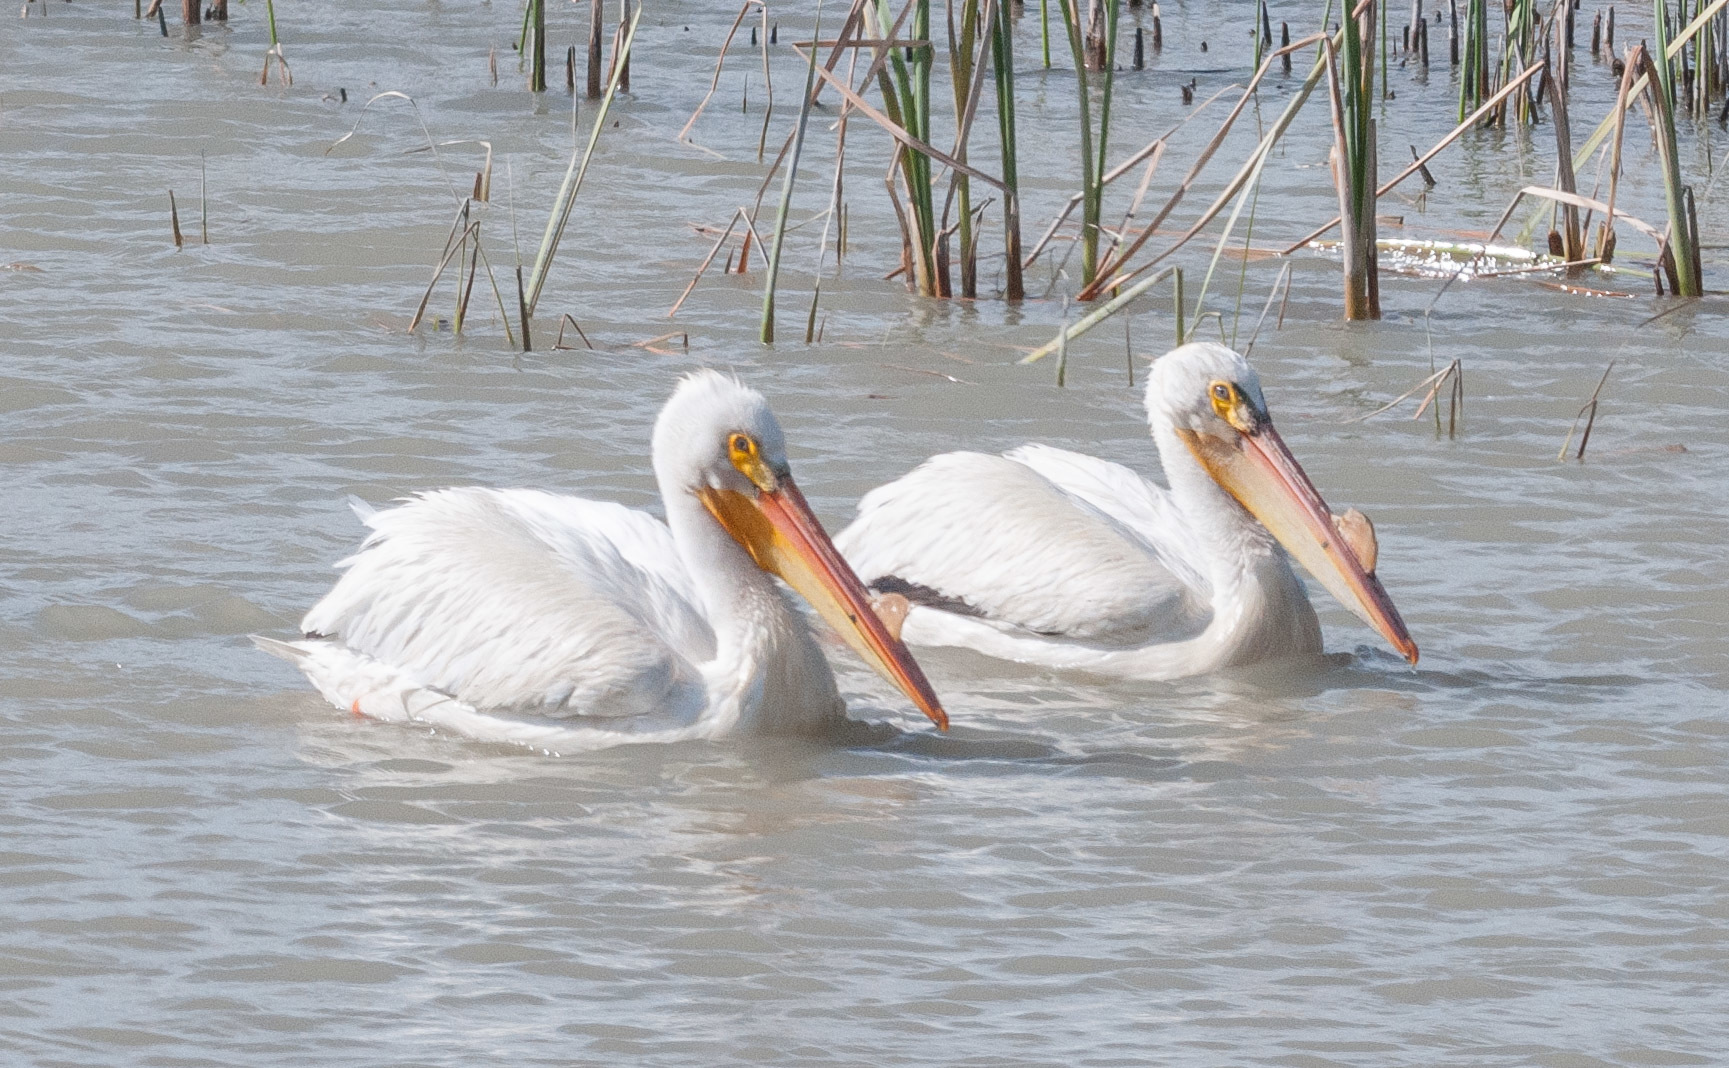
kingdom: Animalia
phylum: Chordata
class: Aves
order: Pelecaniformes
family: Pelecanidae
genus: Pelecanus
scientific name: Pelecanus erythrorhynchos
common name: American white pelican
